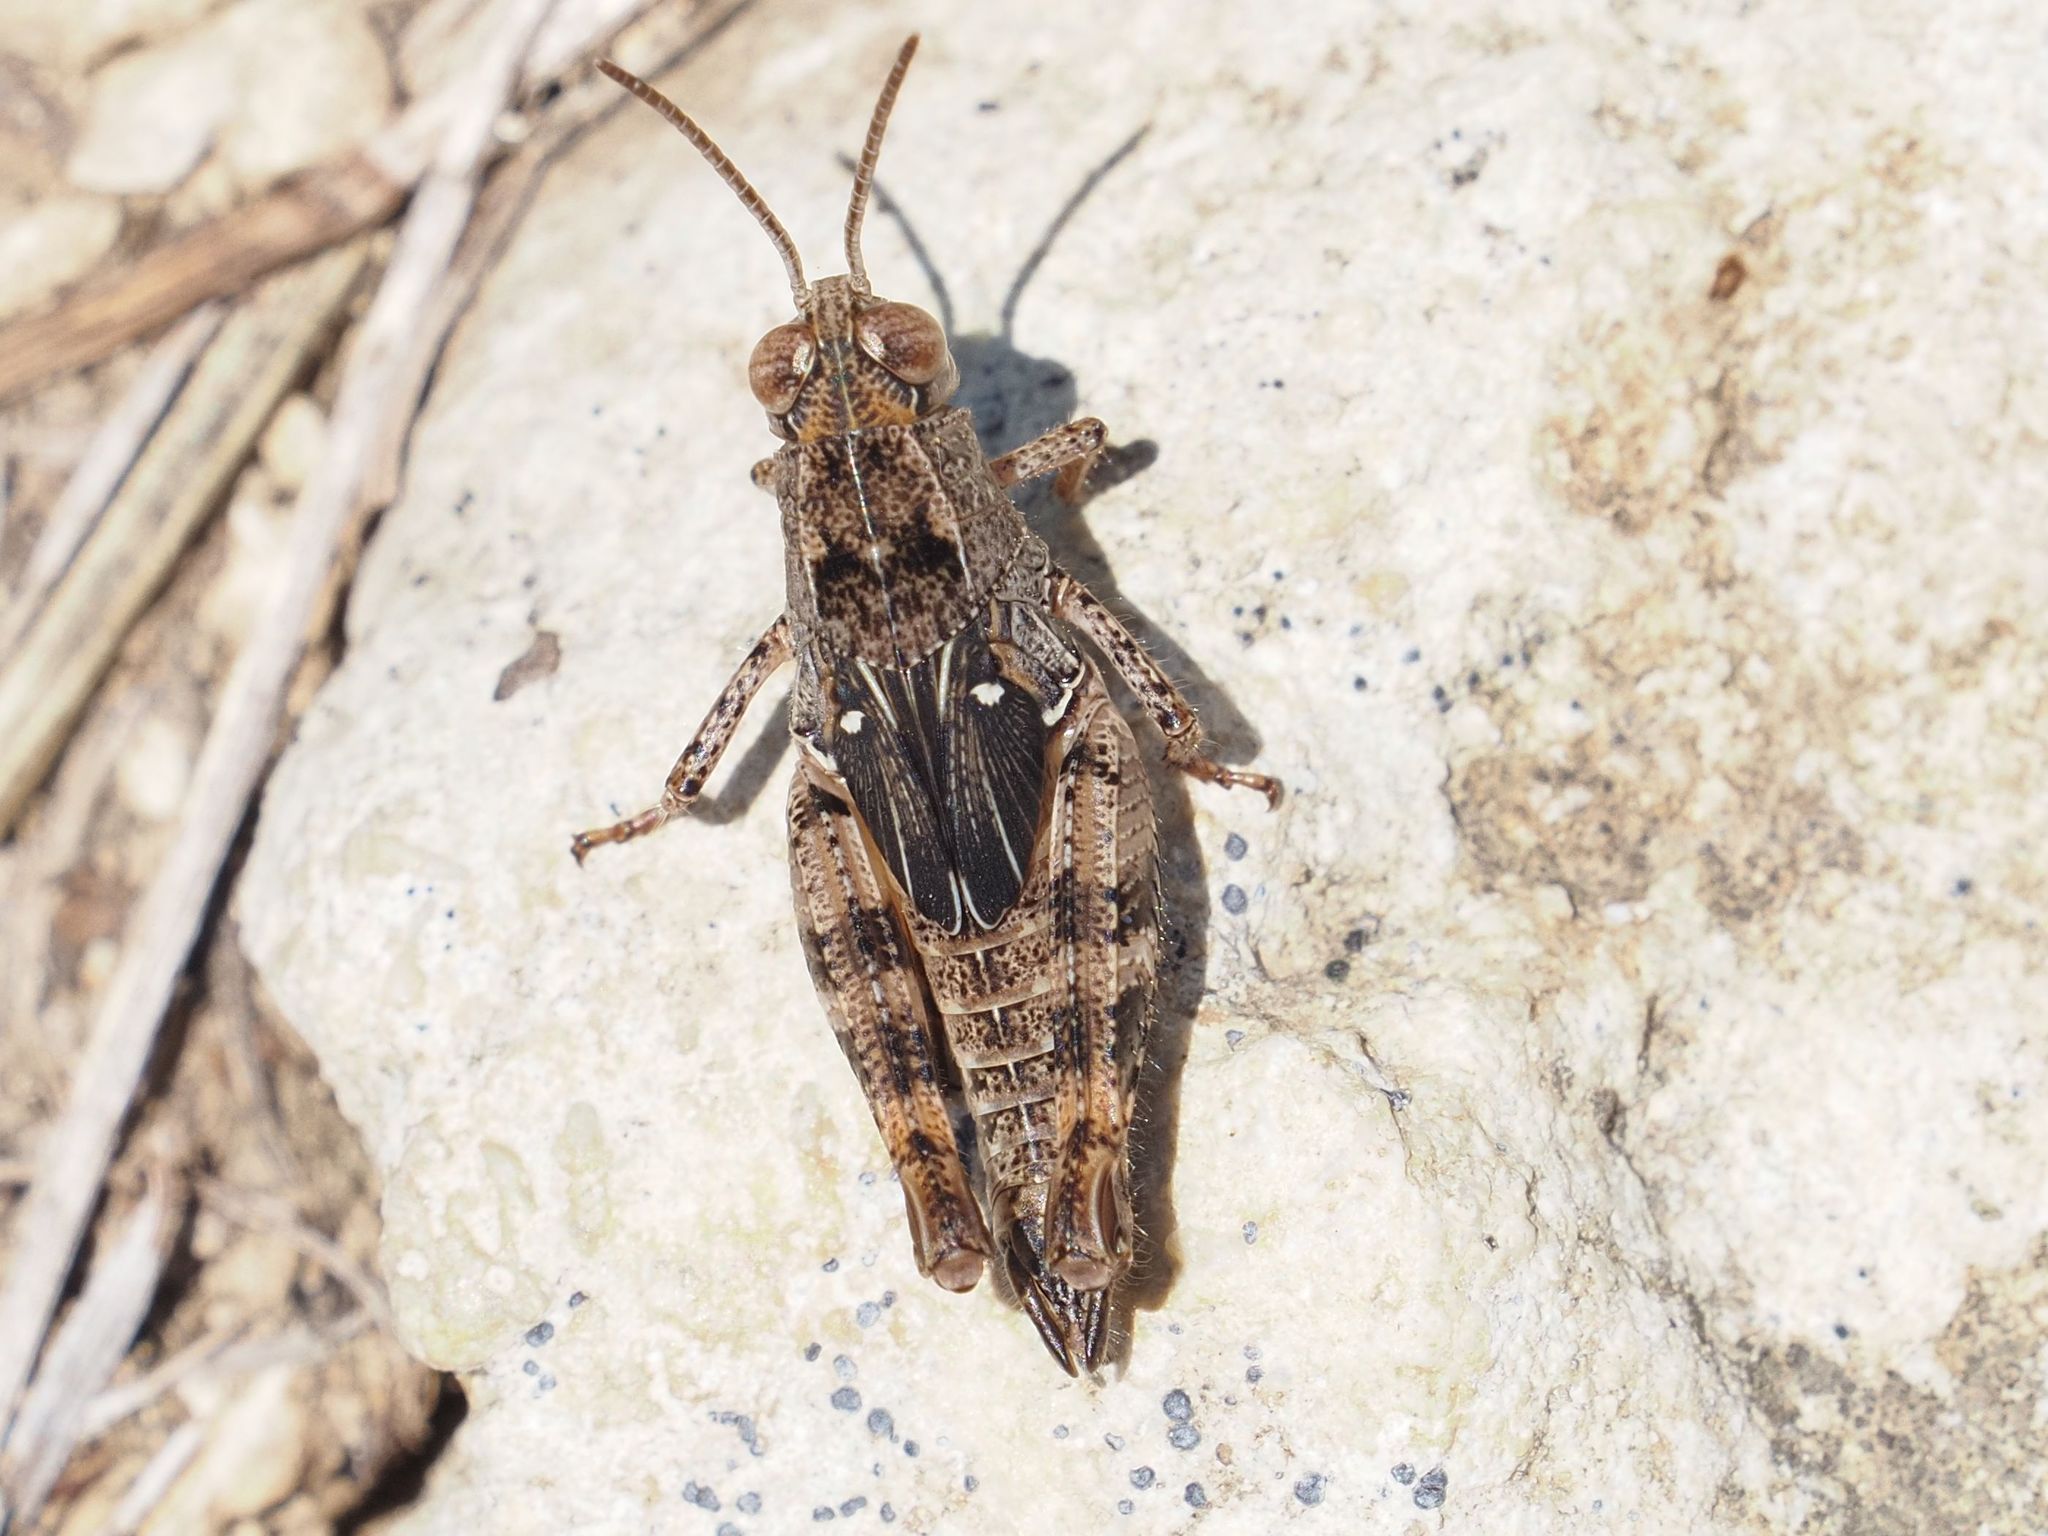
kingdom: Animalia
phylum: Arthropoda
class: Insecta
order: Orthoptera
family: Acrididae
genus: Calliptamus
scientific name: Calliptamus italicus
